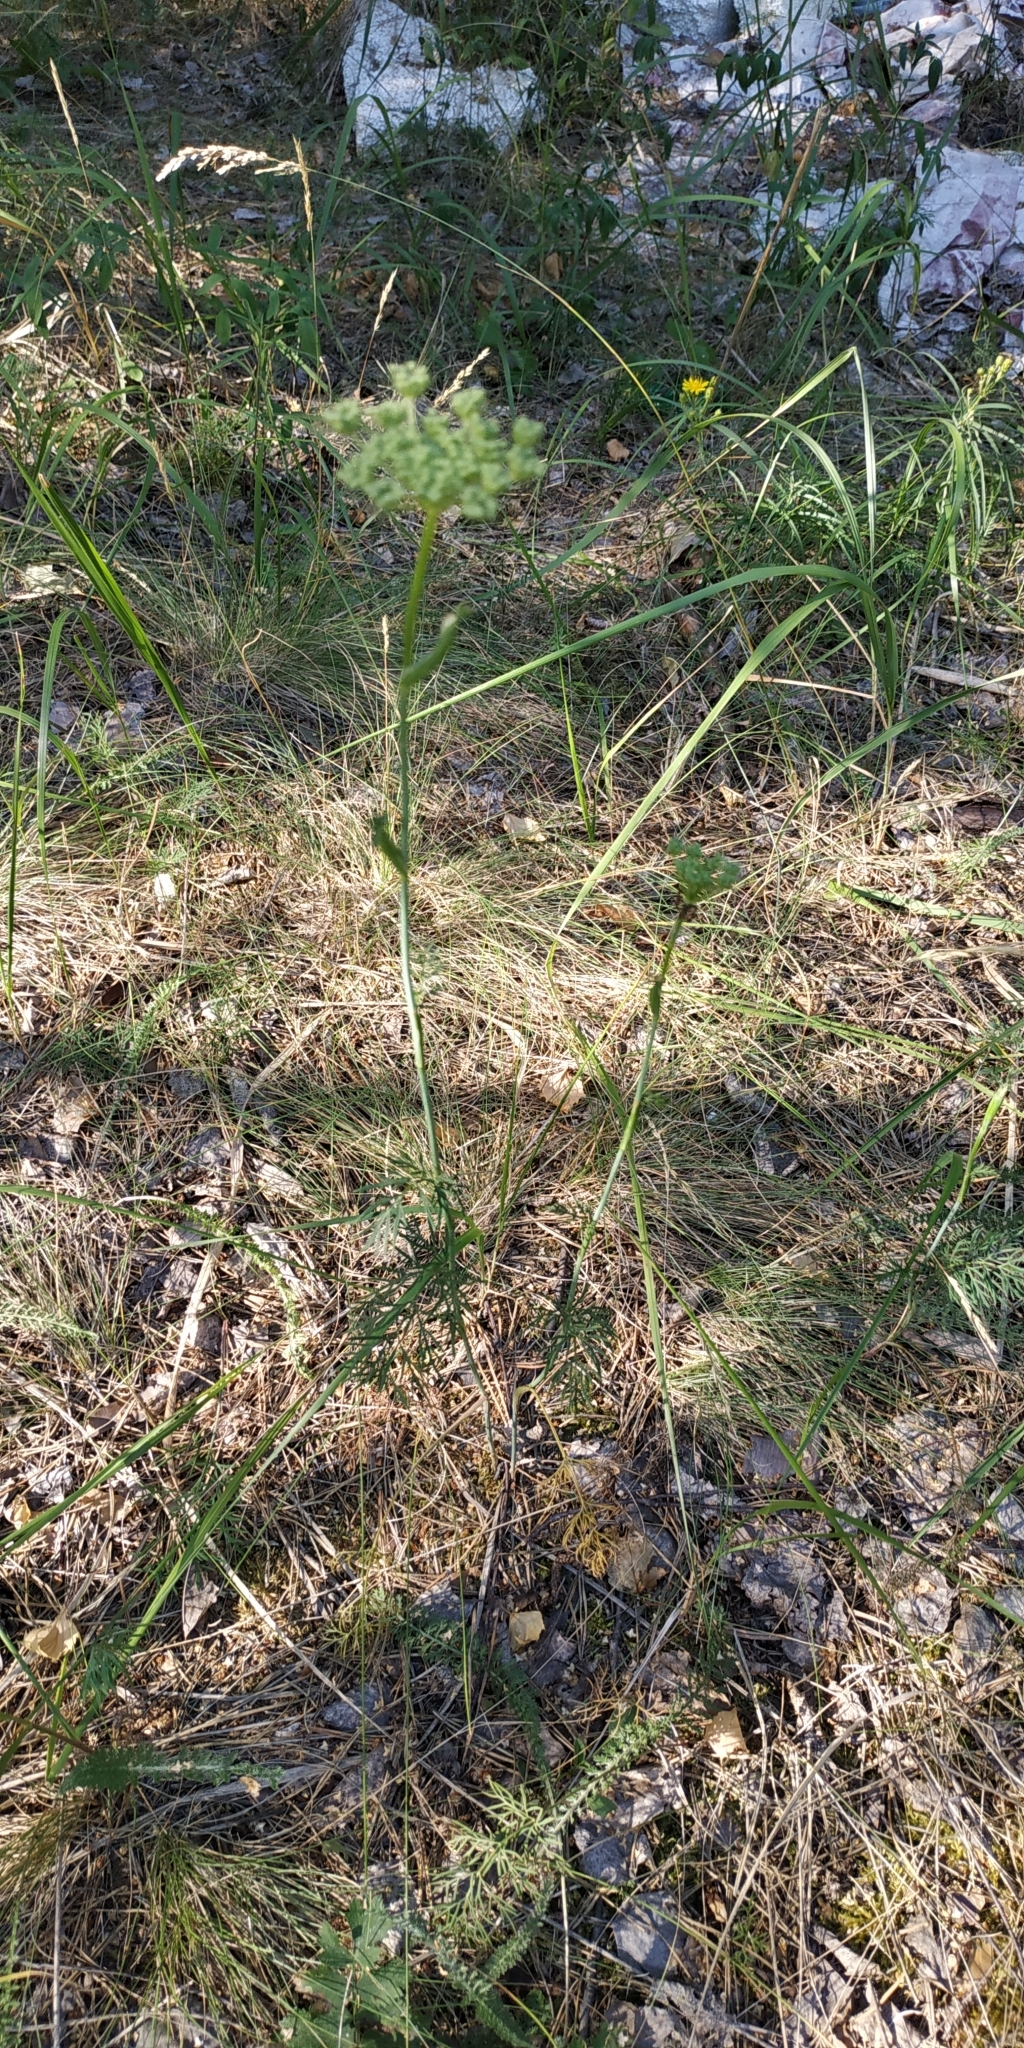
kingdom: Plantae
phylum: Tracheophyta
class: Magnoliopsida
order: Apiales
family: Apiaceae
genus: Kadenia
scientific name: Kadenia dubia
